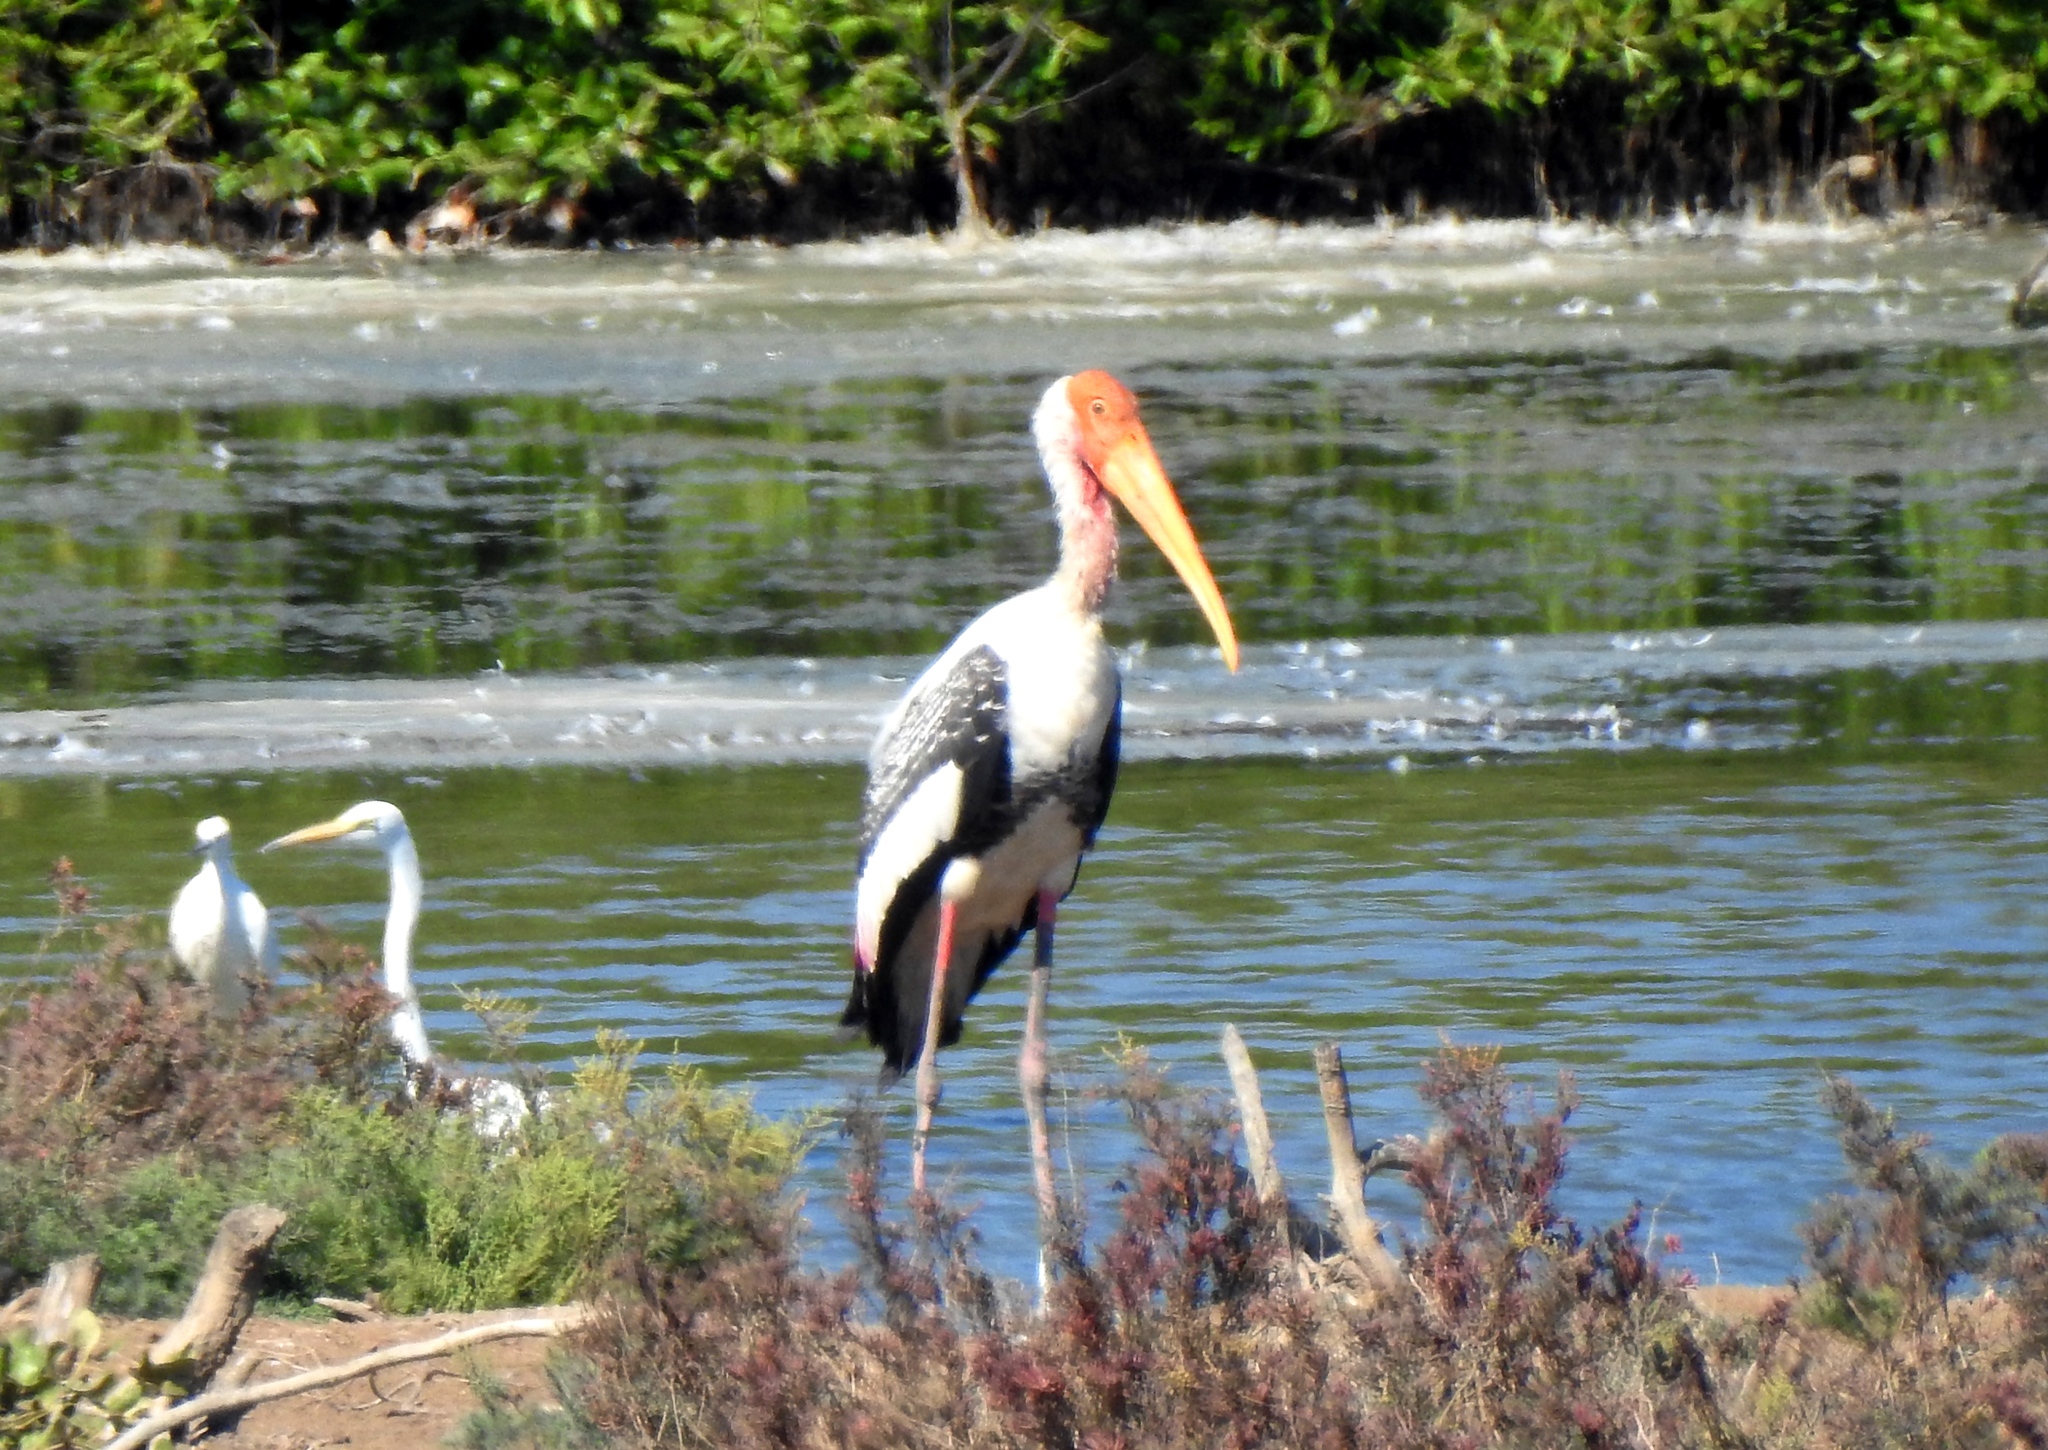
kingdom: Animalia
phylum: Chordata
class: Aves
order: Ciconiiformes
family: Ciconiidae
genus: Mycteria
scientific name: Mycteria leucocephala
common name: Painted stork
